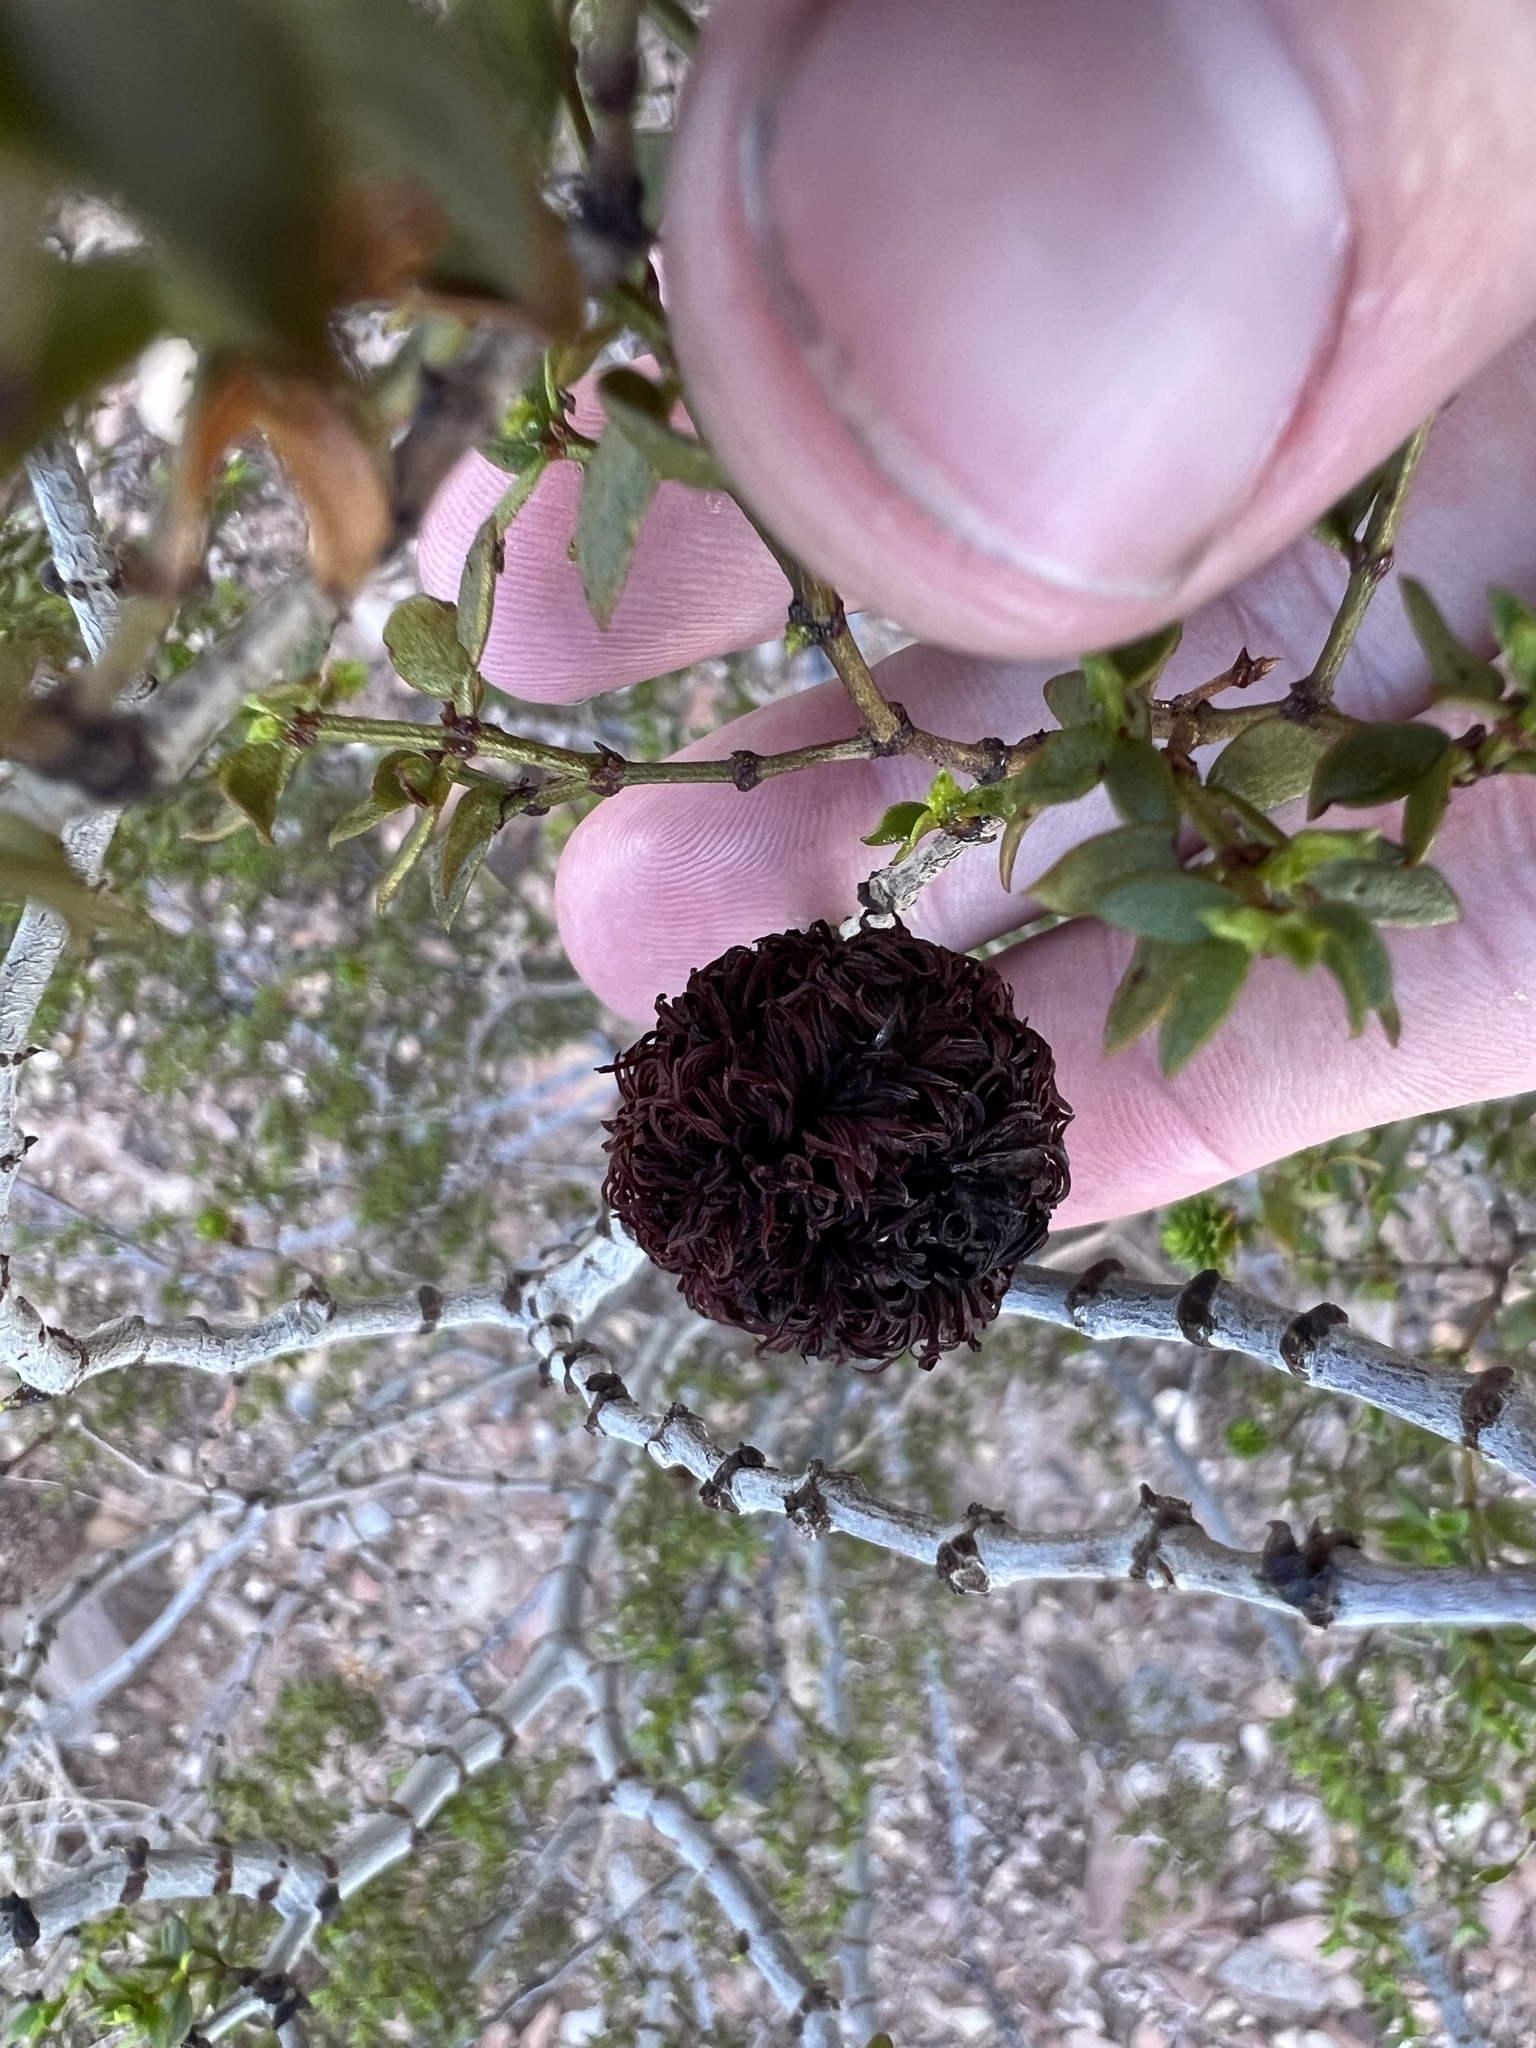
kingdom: Plantae
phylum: Tracheophyta
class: Magnoliopsida
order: Zygophyllales
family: Zygophyllaceae
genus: Larrea
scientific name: Larrea tridentata
